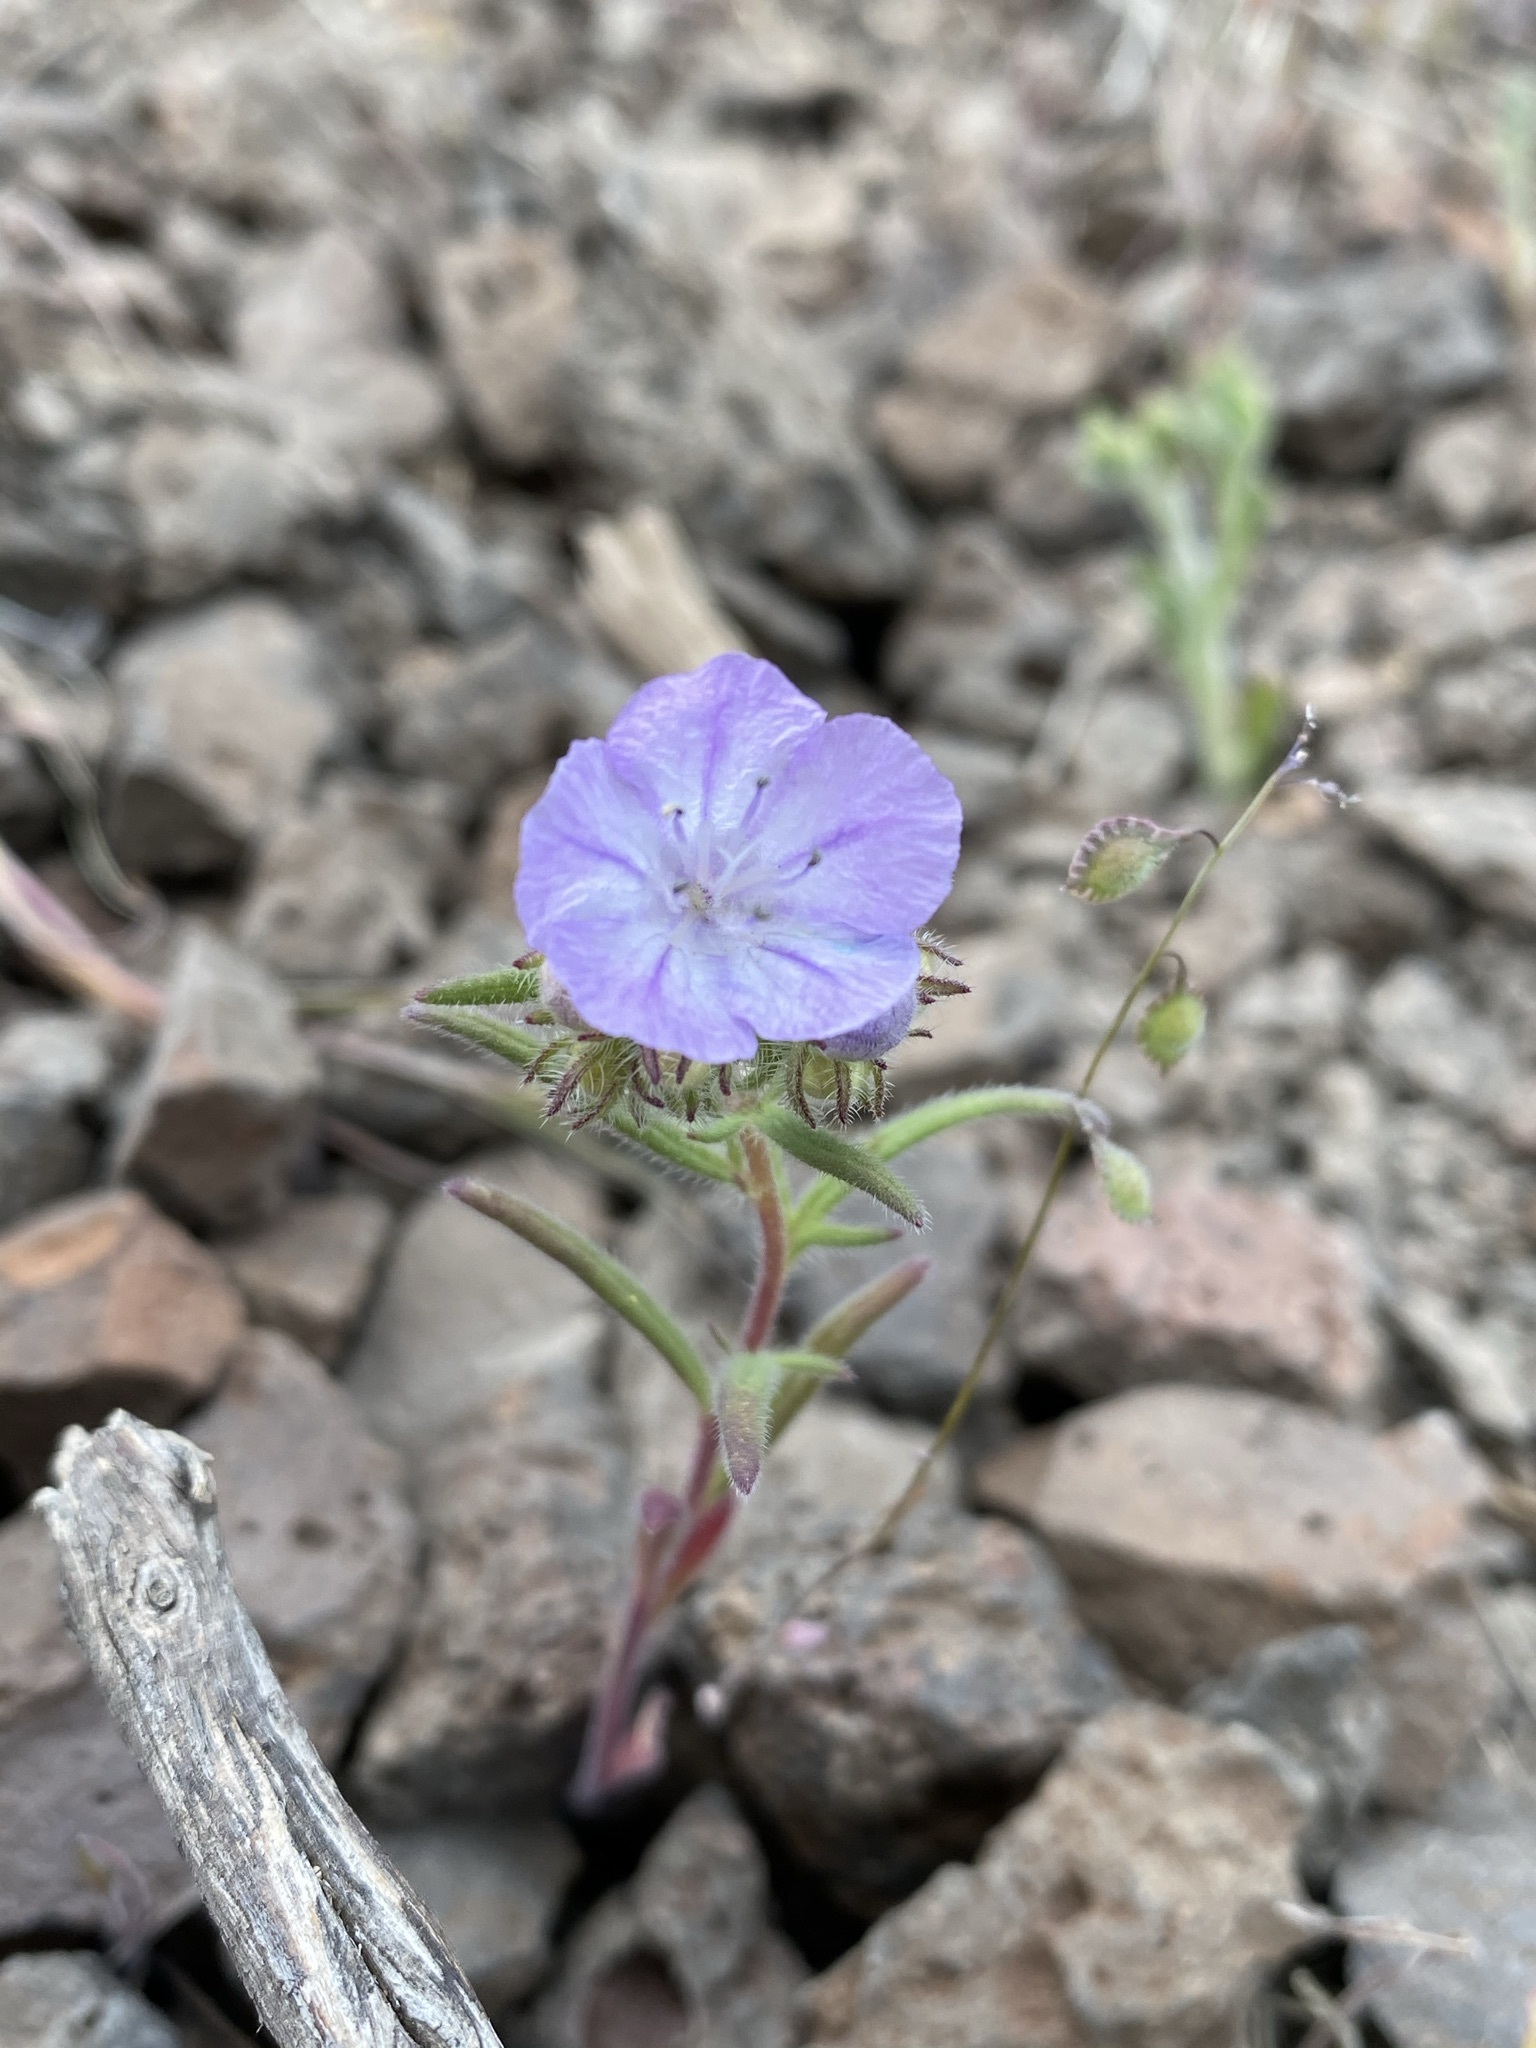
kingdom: Plantae
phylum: Tracheophyta
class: Magnoliopsida
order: Boraginales
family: Hydrophyllaceae
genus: Phacelia
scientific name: Phacelia linearis
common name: Linear-leaved phacelia
